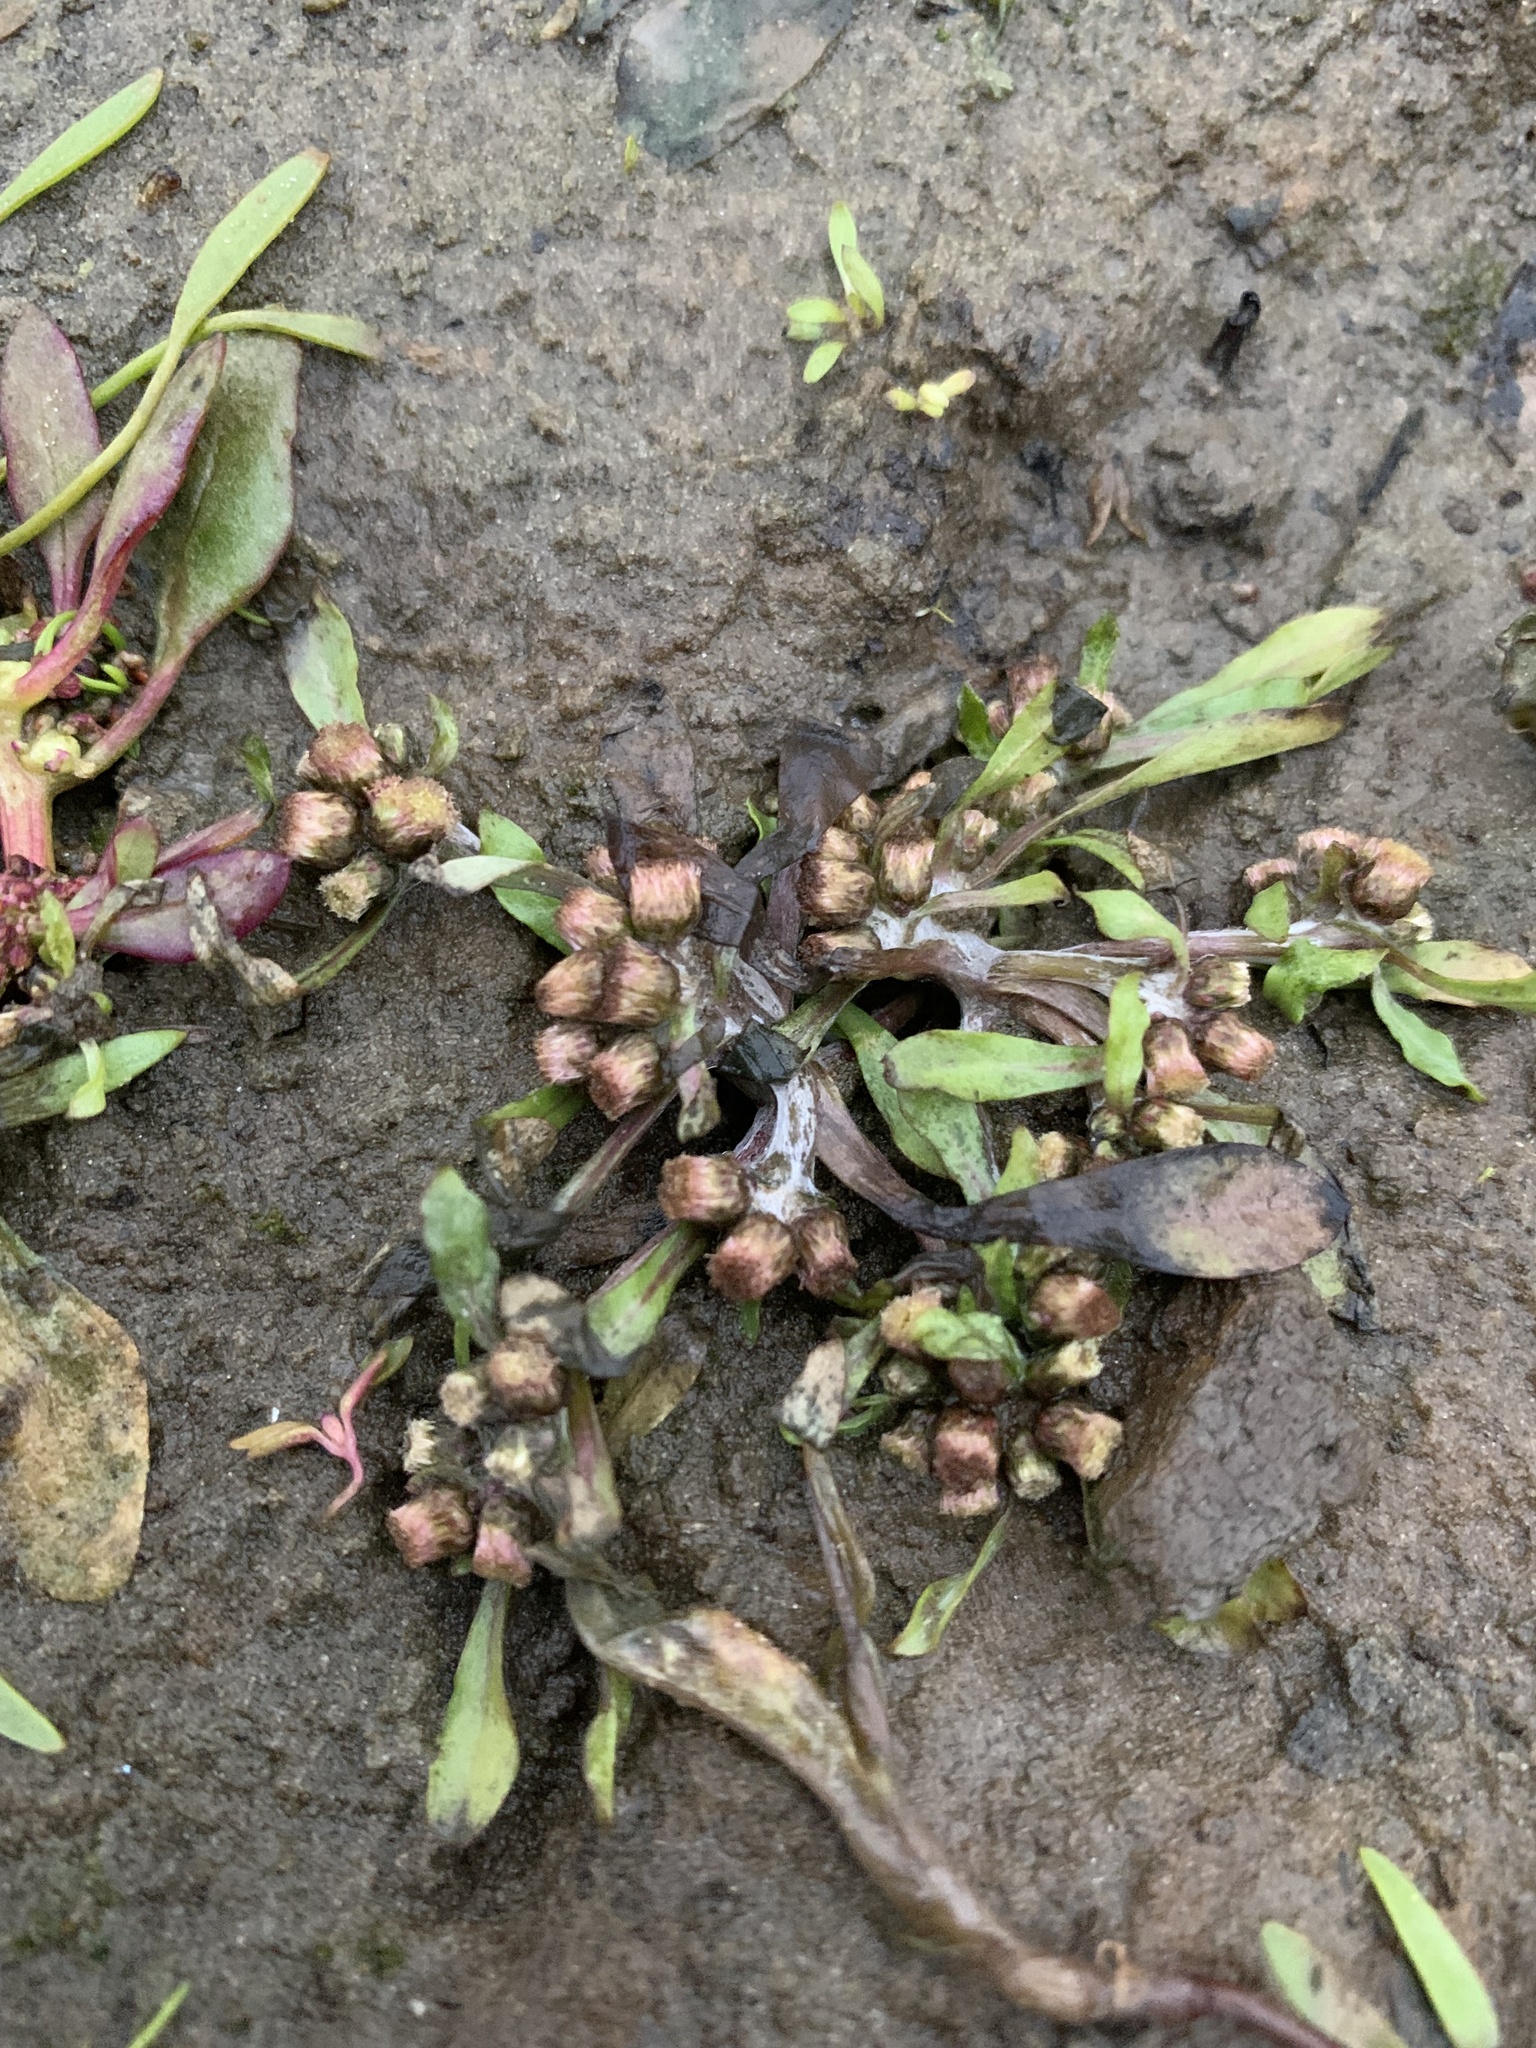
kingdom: Plantae
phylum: Tracheophyta
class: Magnoliopsida
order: Asterales
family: Asteraceae
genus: Gnaphalium
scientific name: Gnaphalium uliginosum
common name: Marsh cudweed
